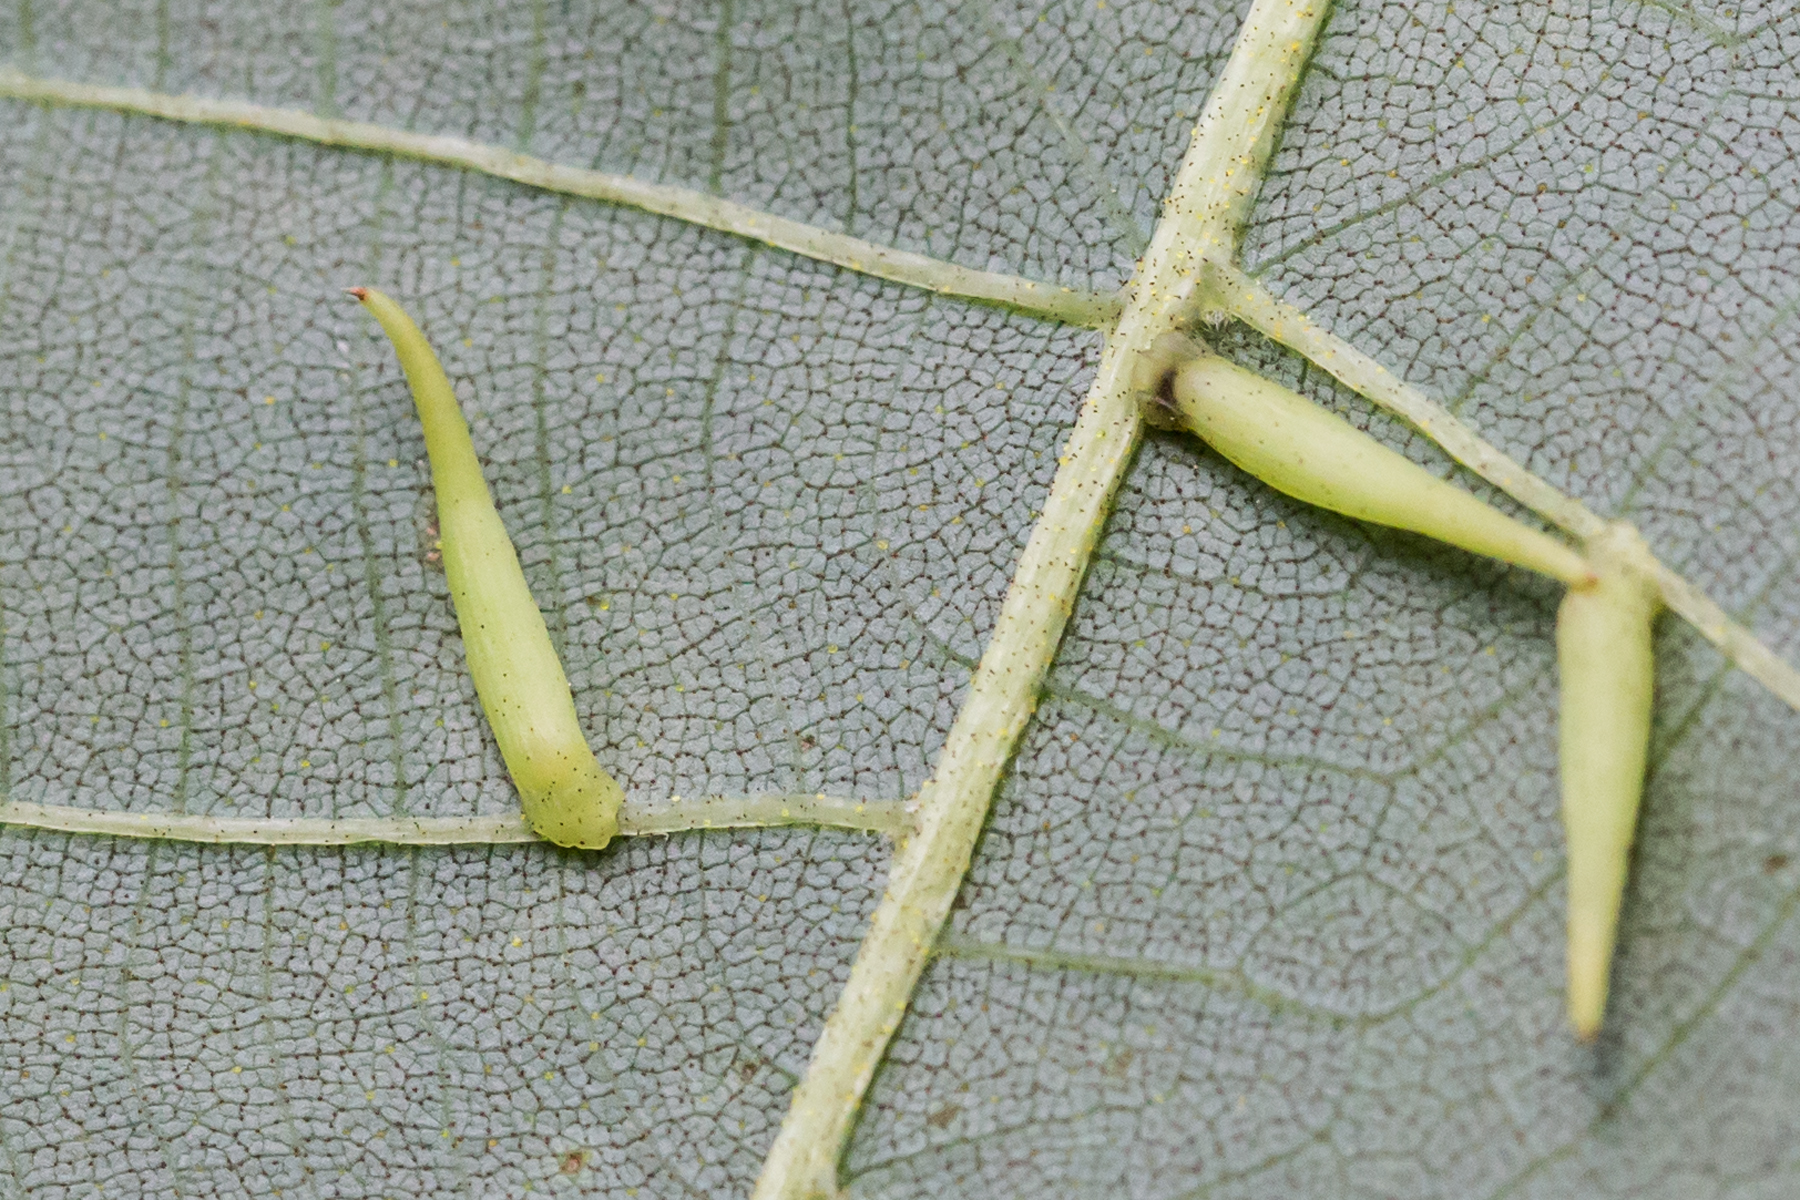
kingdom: Animalia
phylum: Arthropoda
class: Insecta
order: Diptera
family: Cecidomyiidae
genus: Caryomyia
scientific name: Caryomyia
